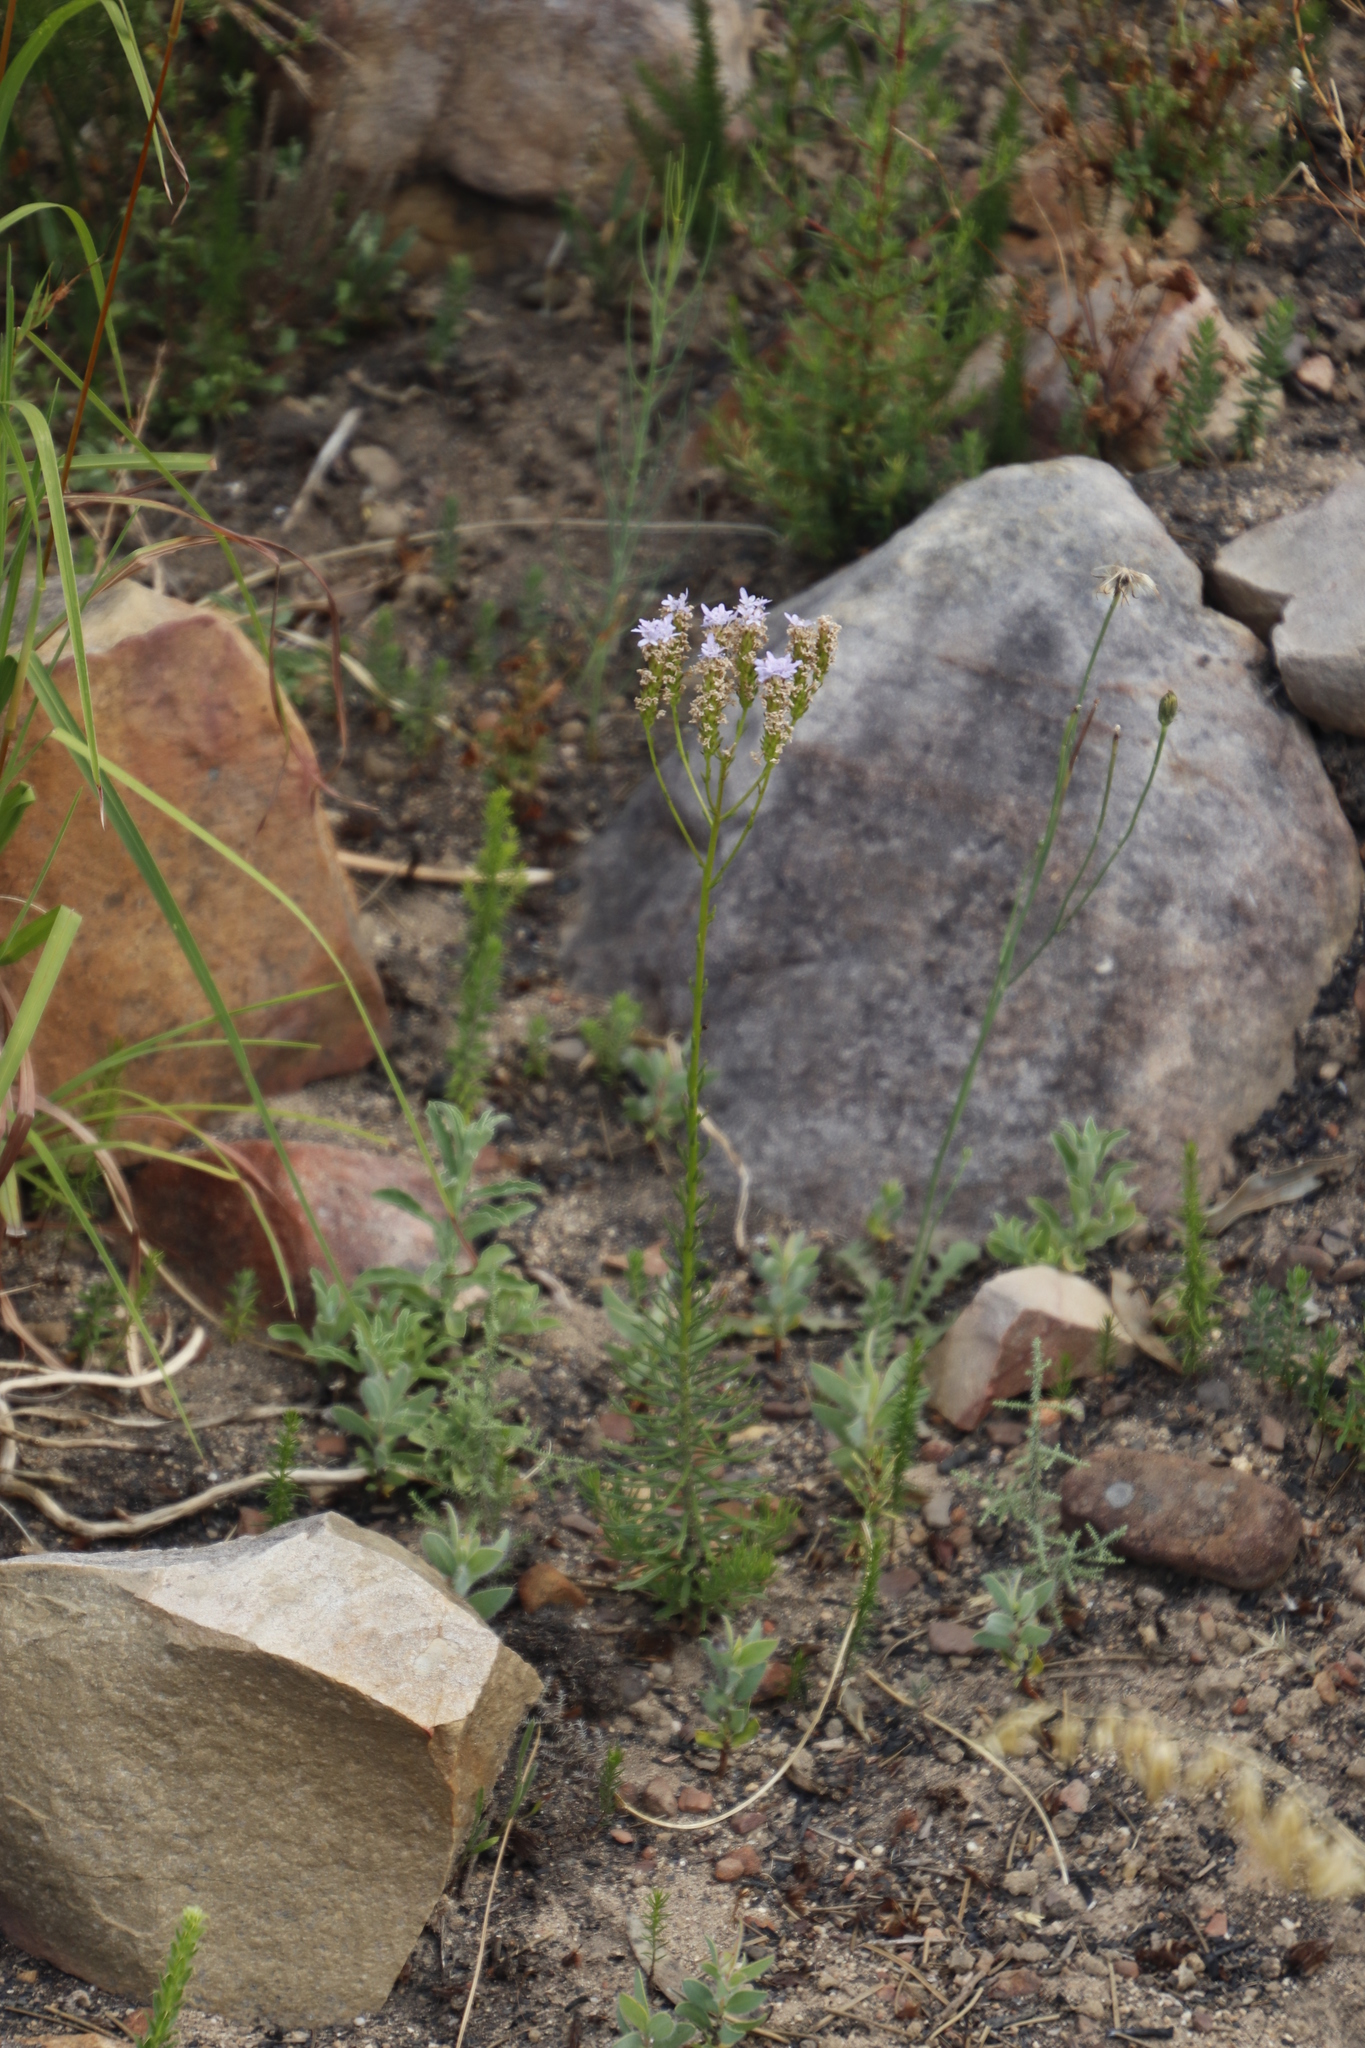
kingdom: Plantae
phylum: Tracheophyta
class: Magnoliopsida
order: Lamiales
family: Scrophulariaceae
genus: Pseudoselago
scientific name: Pseudoselago spuria
